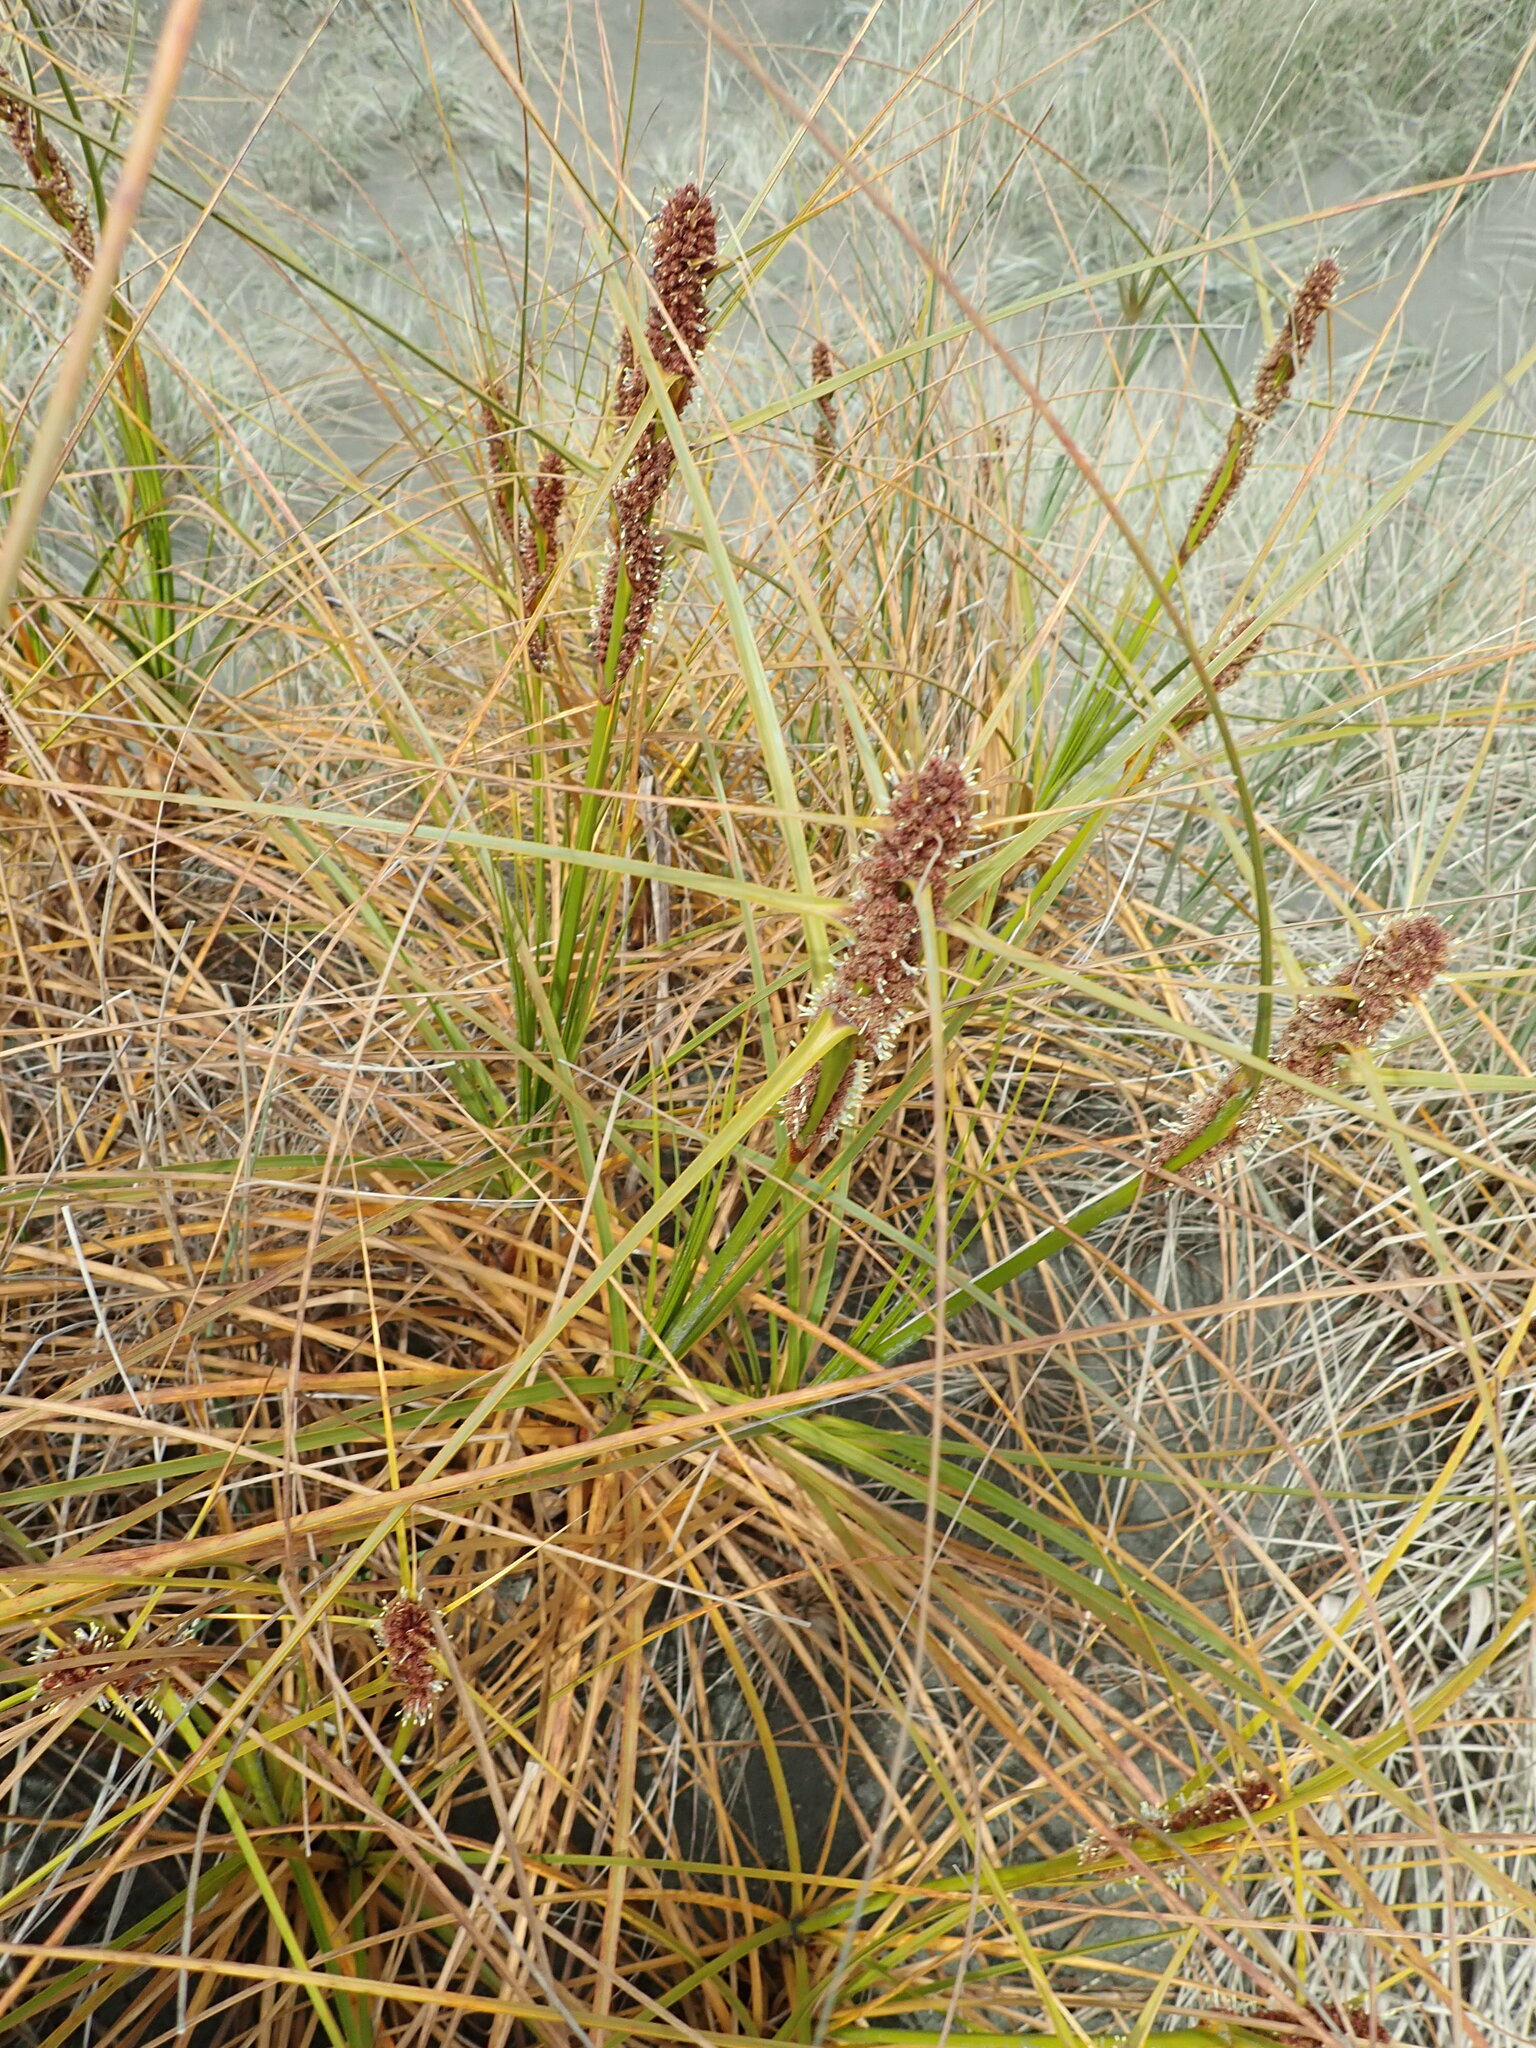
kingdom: Plantae
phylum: Tracheophyta
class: Liliopsida
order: Poales
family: Cyperaceae
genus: Ficinia
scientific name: Ficinia spiralis
